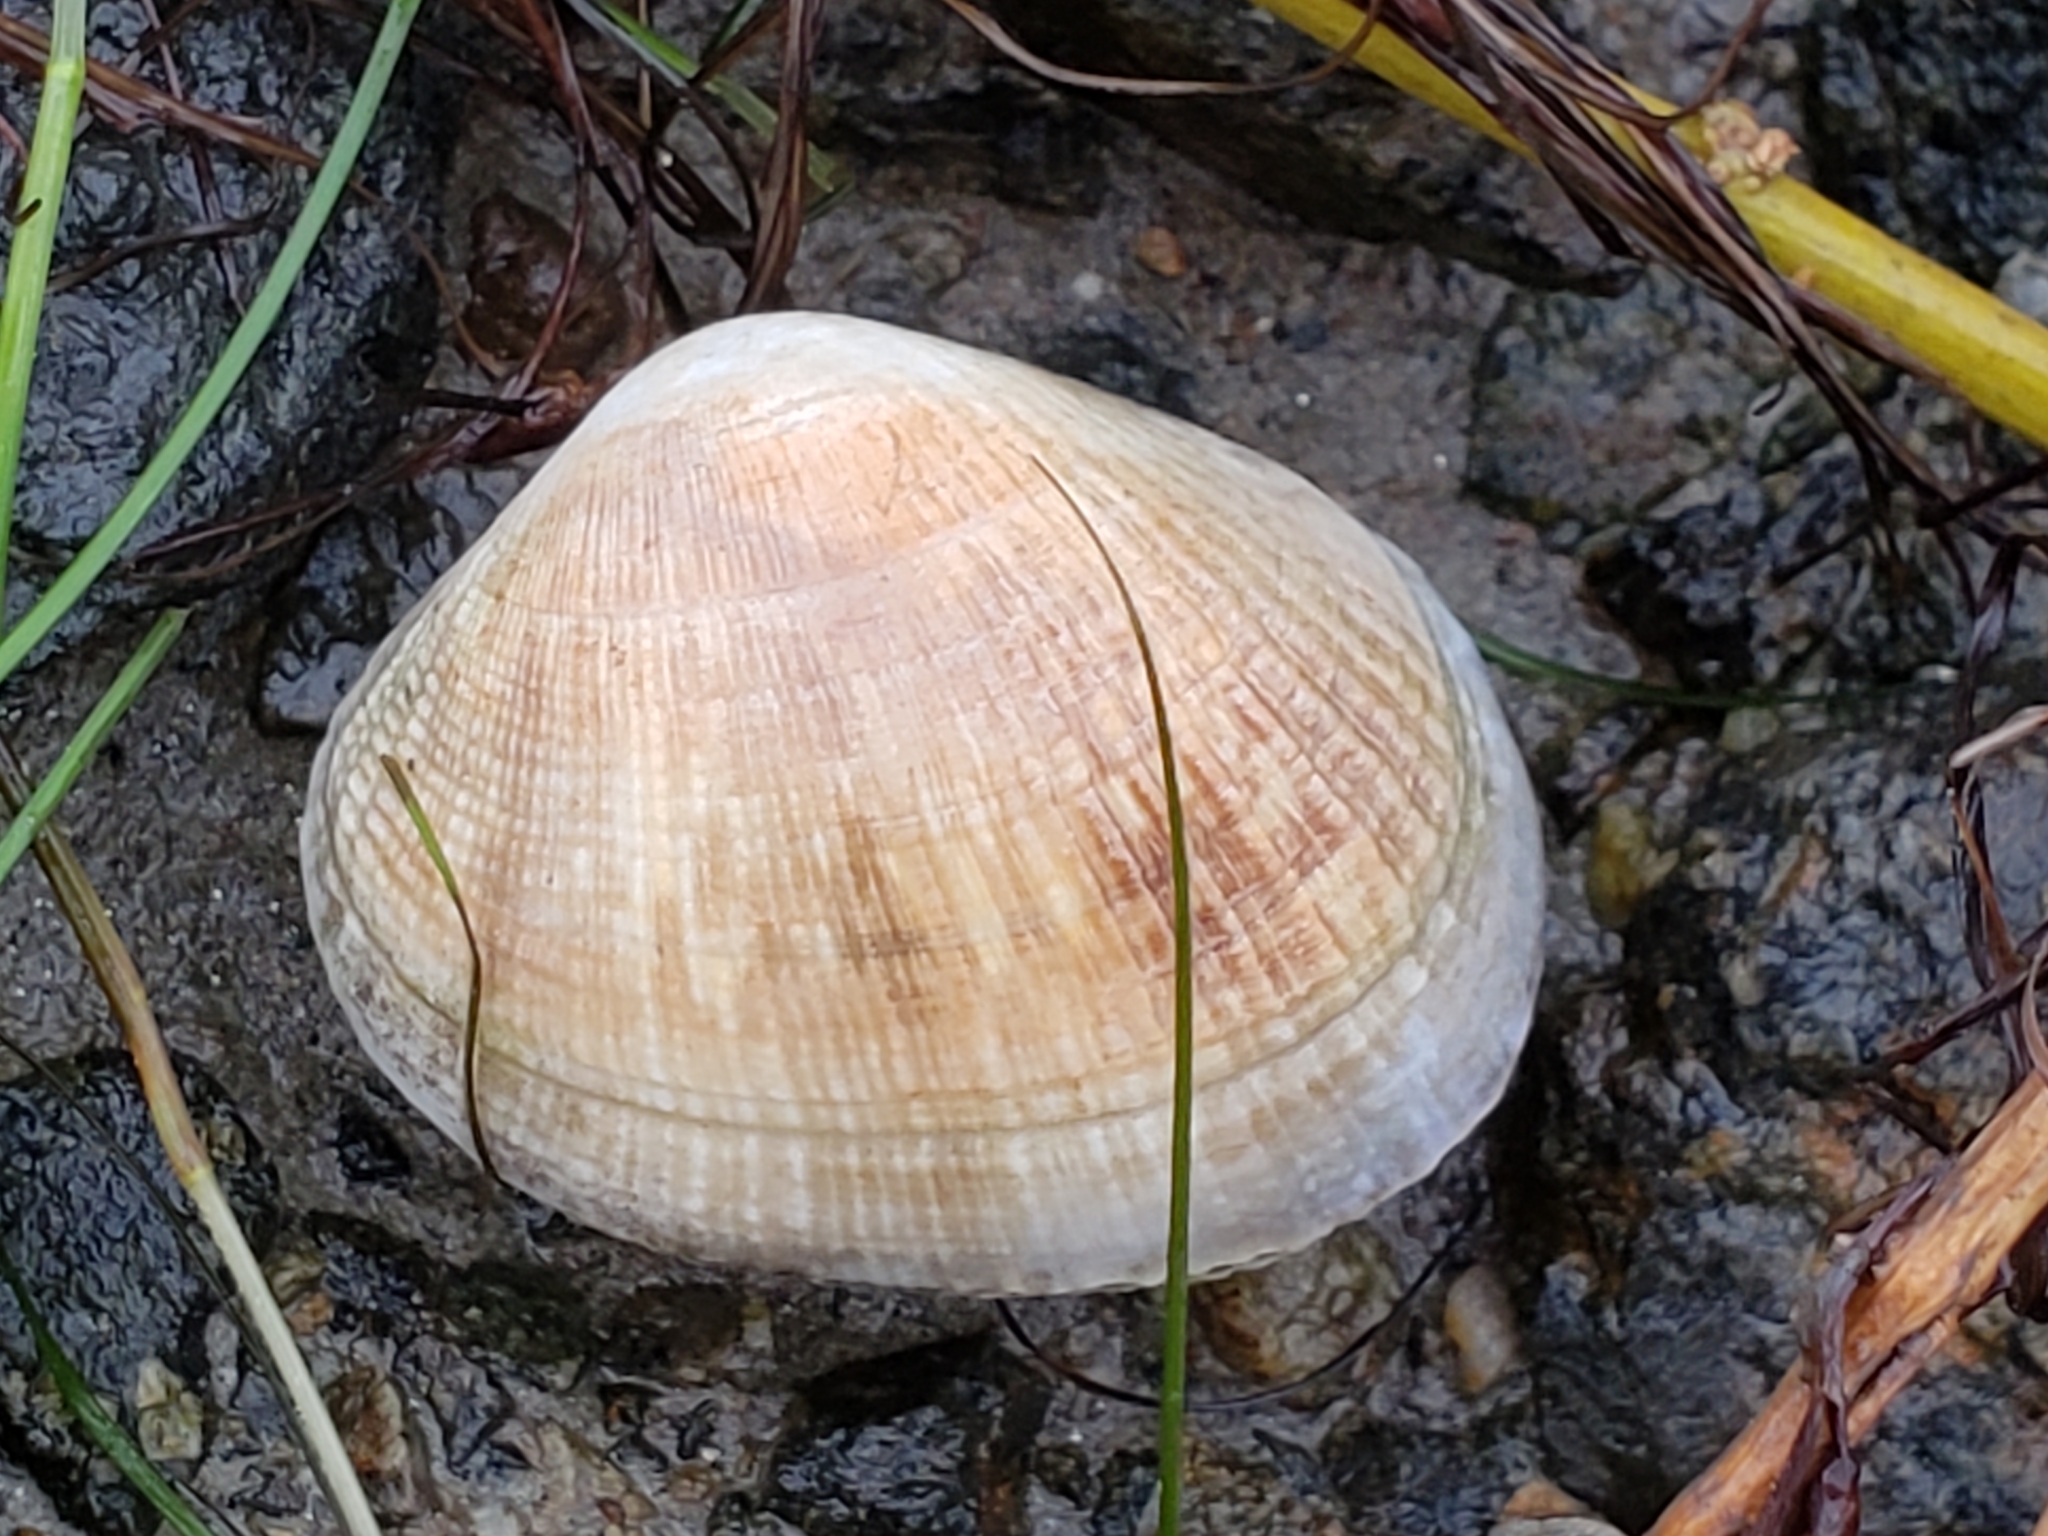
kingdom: Animalia
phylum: Mollusca
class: Bivalvia
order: Venerida
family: Veneridae
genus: Ruditapes
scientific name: Ruditapes philippinarum
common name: Manila clam
